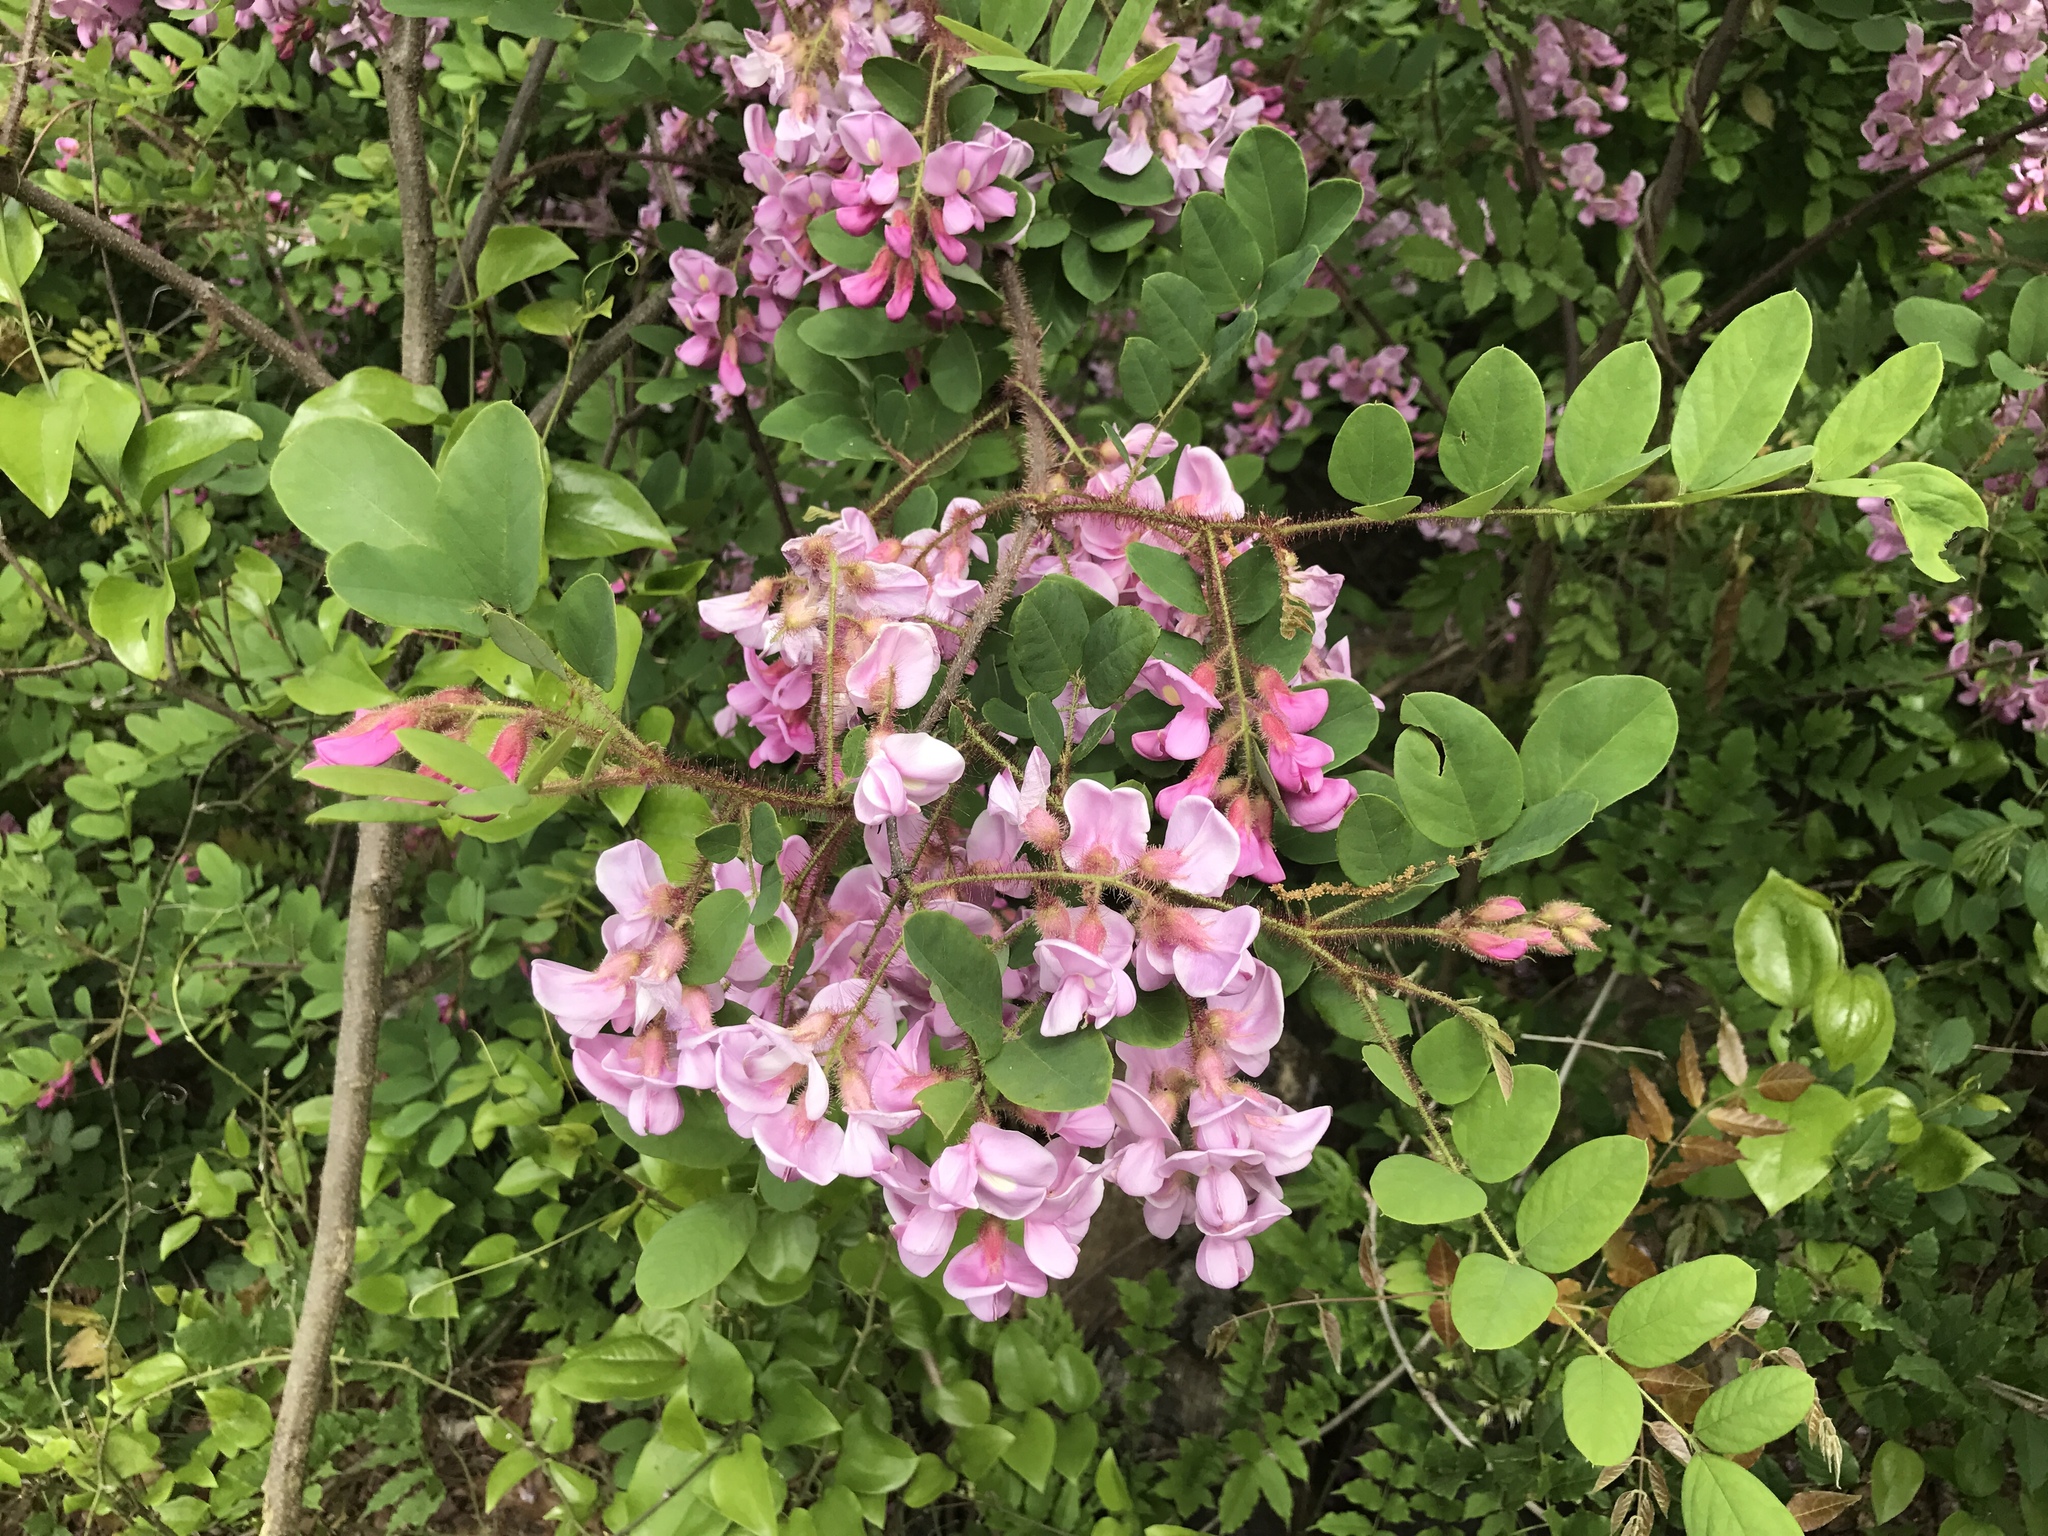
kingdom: Plantae
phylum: Tracheophyta
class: Magnoliopsida
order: Fabales
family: Fabaceae
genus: Robinia
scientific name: Robinia hispida
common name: Bristly locust
